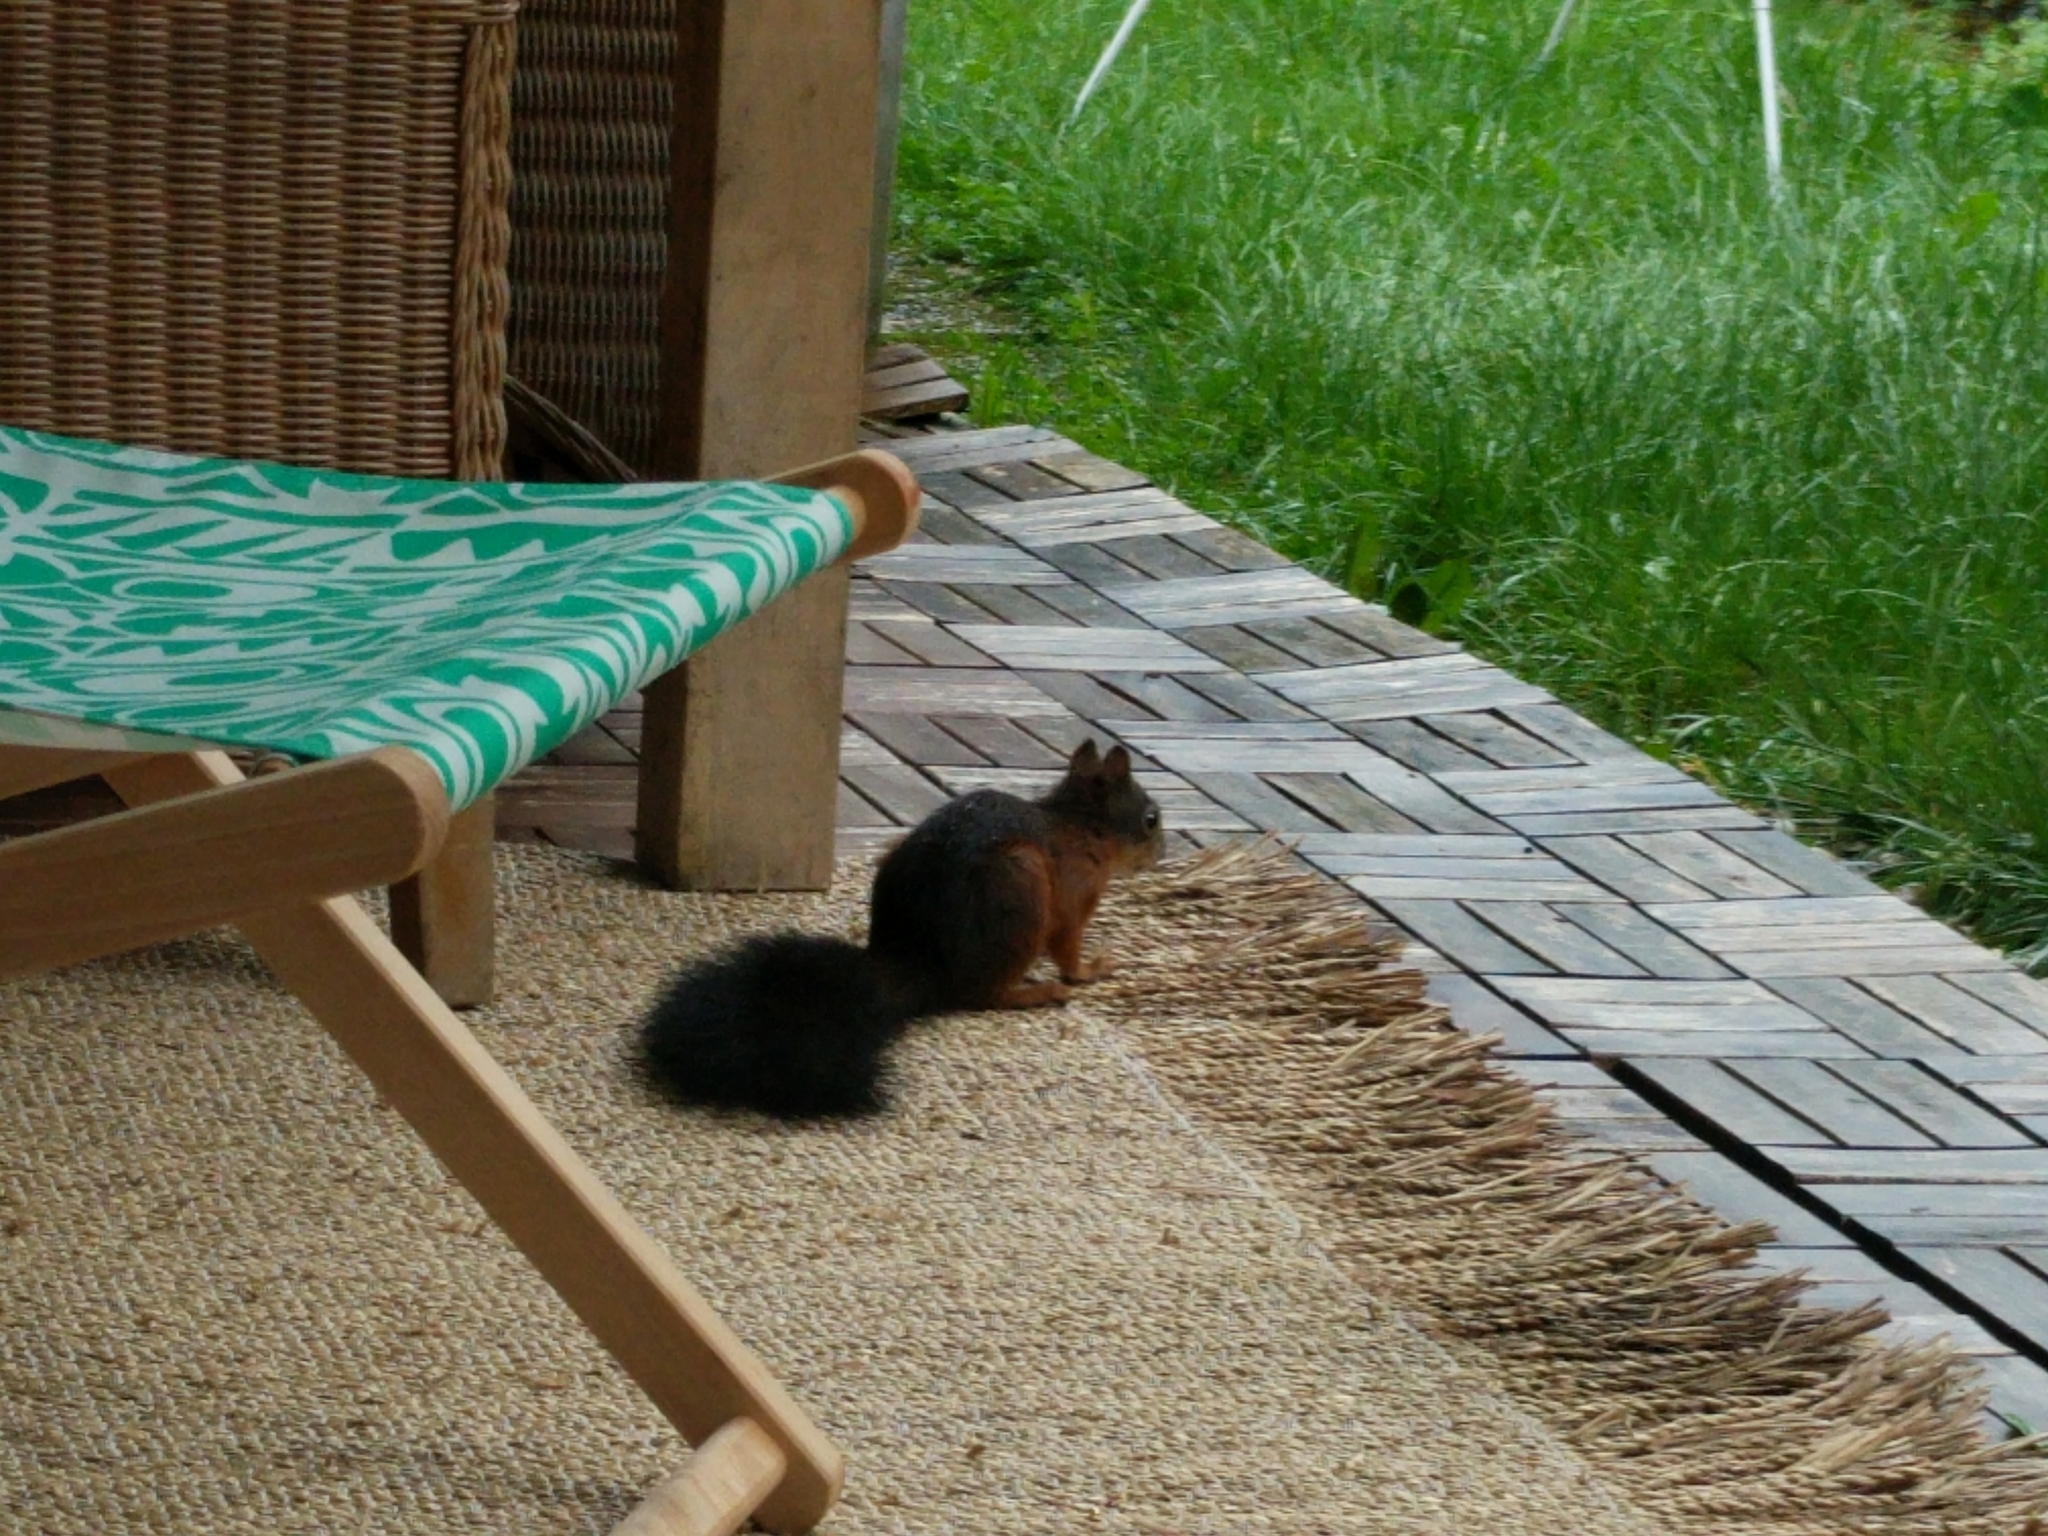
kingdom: Animalia
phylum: Chordata
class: Mammalia
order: Rodentia
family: Sciuridae
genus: Sciurus
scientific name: Sciurus vulgaris
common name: Eurasian red squirrel
